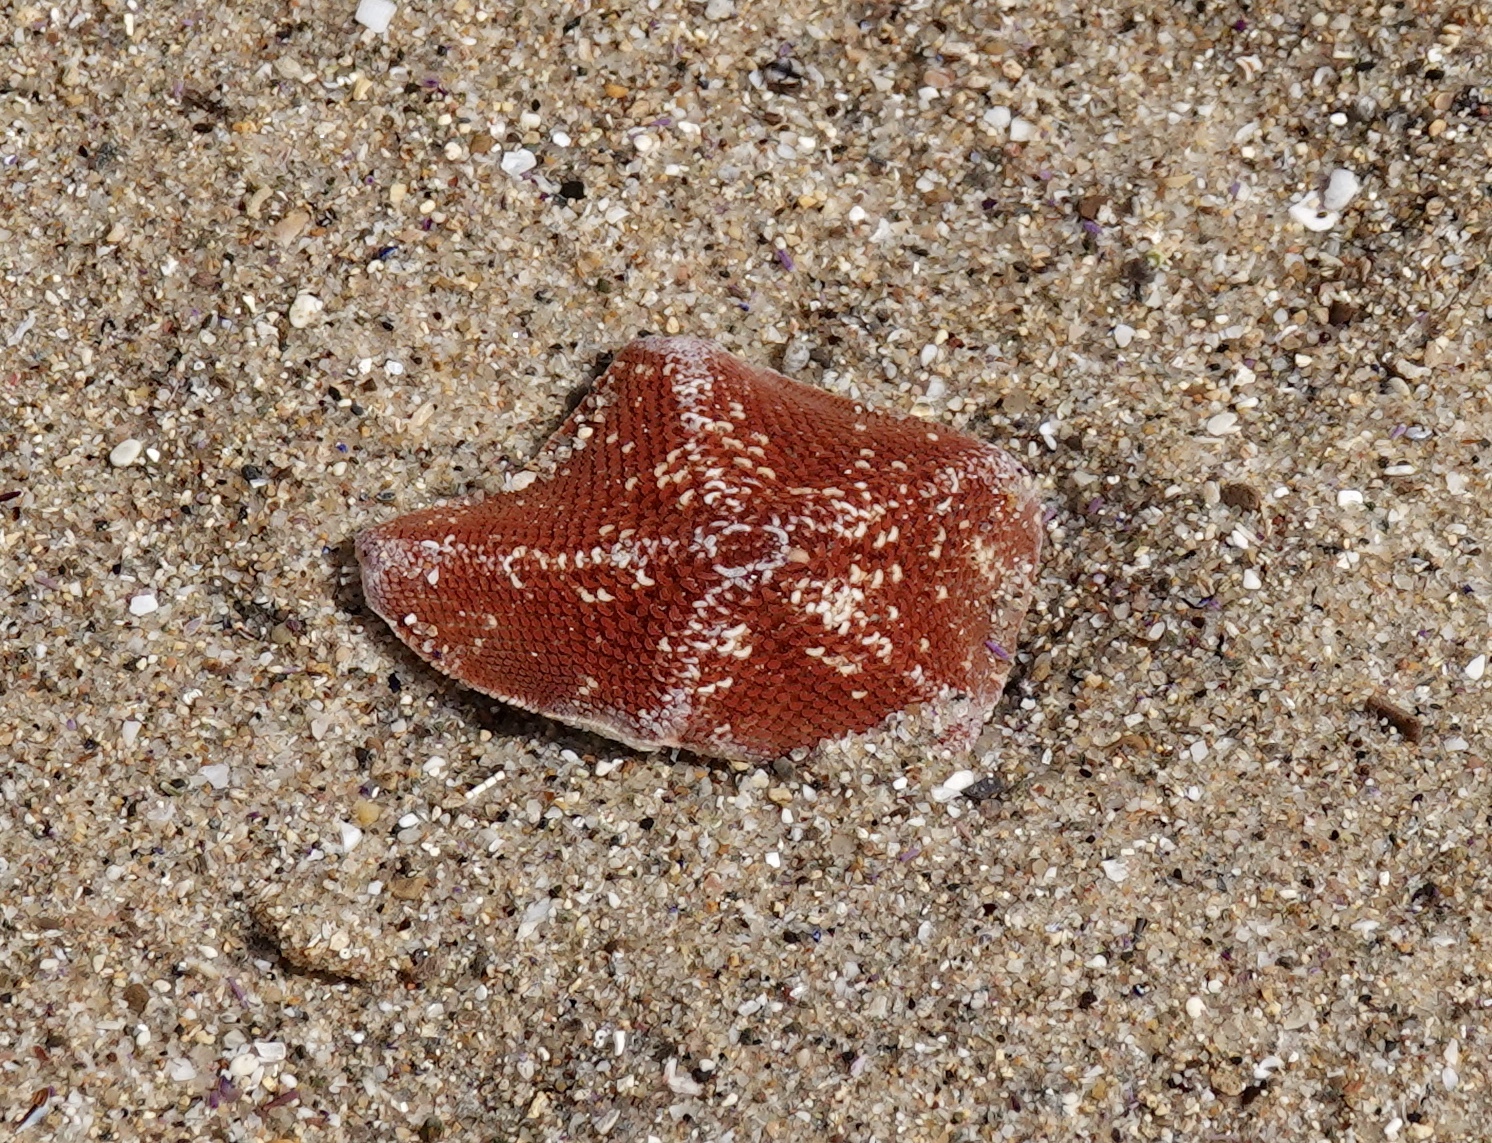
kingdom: Animalia
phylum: Echinodermata
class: Asteroidea
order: Valvatida
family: Asterinidae
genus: Patiria
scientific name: Patiria miniata
